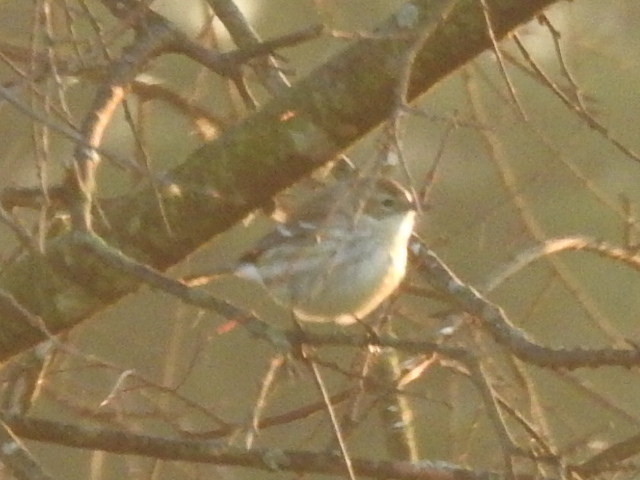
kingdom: Animalia
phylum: Chordata
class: Aves
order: Passeriformes
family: Parulidae
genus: Setophaga
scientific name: Setophaga coronata
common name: Myrtle warbler
